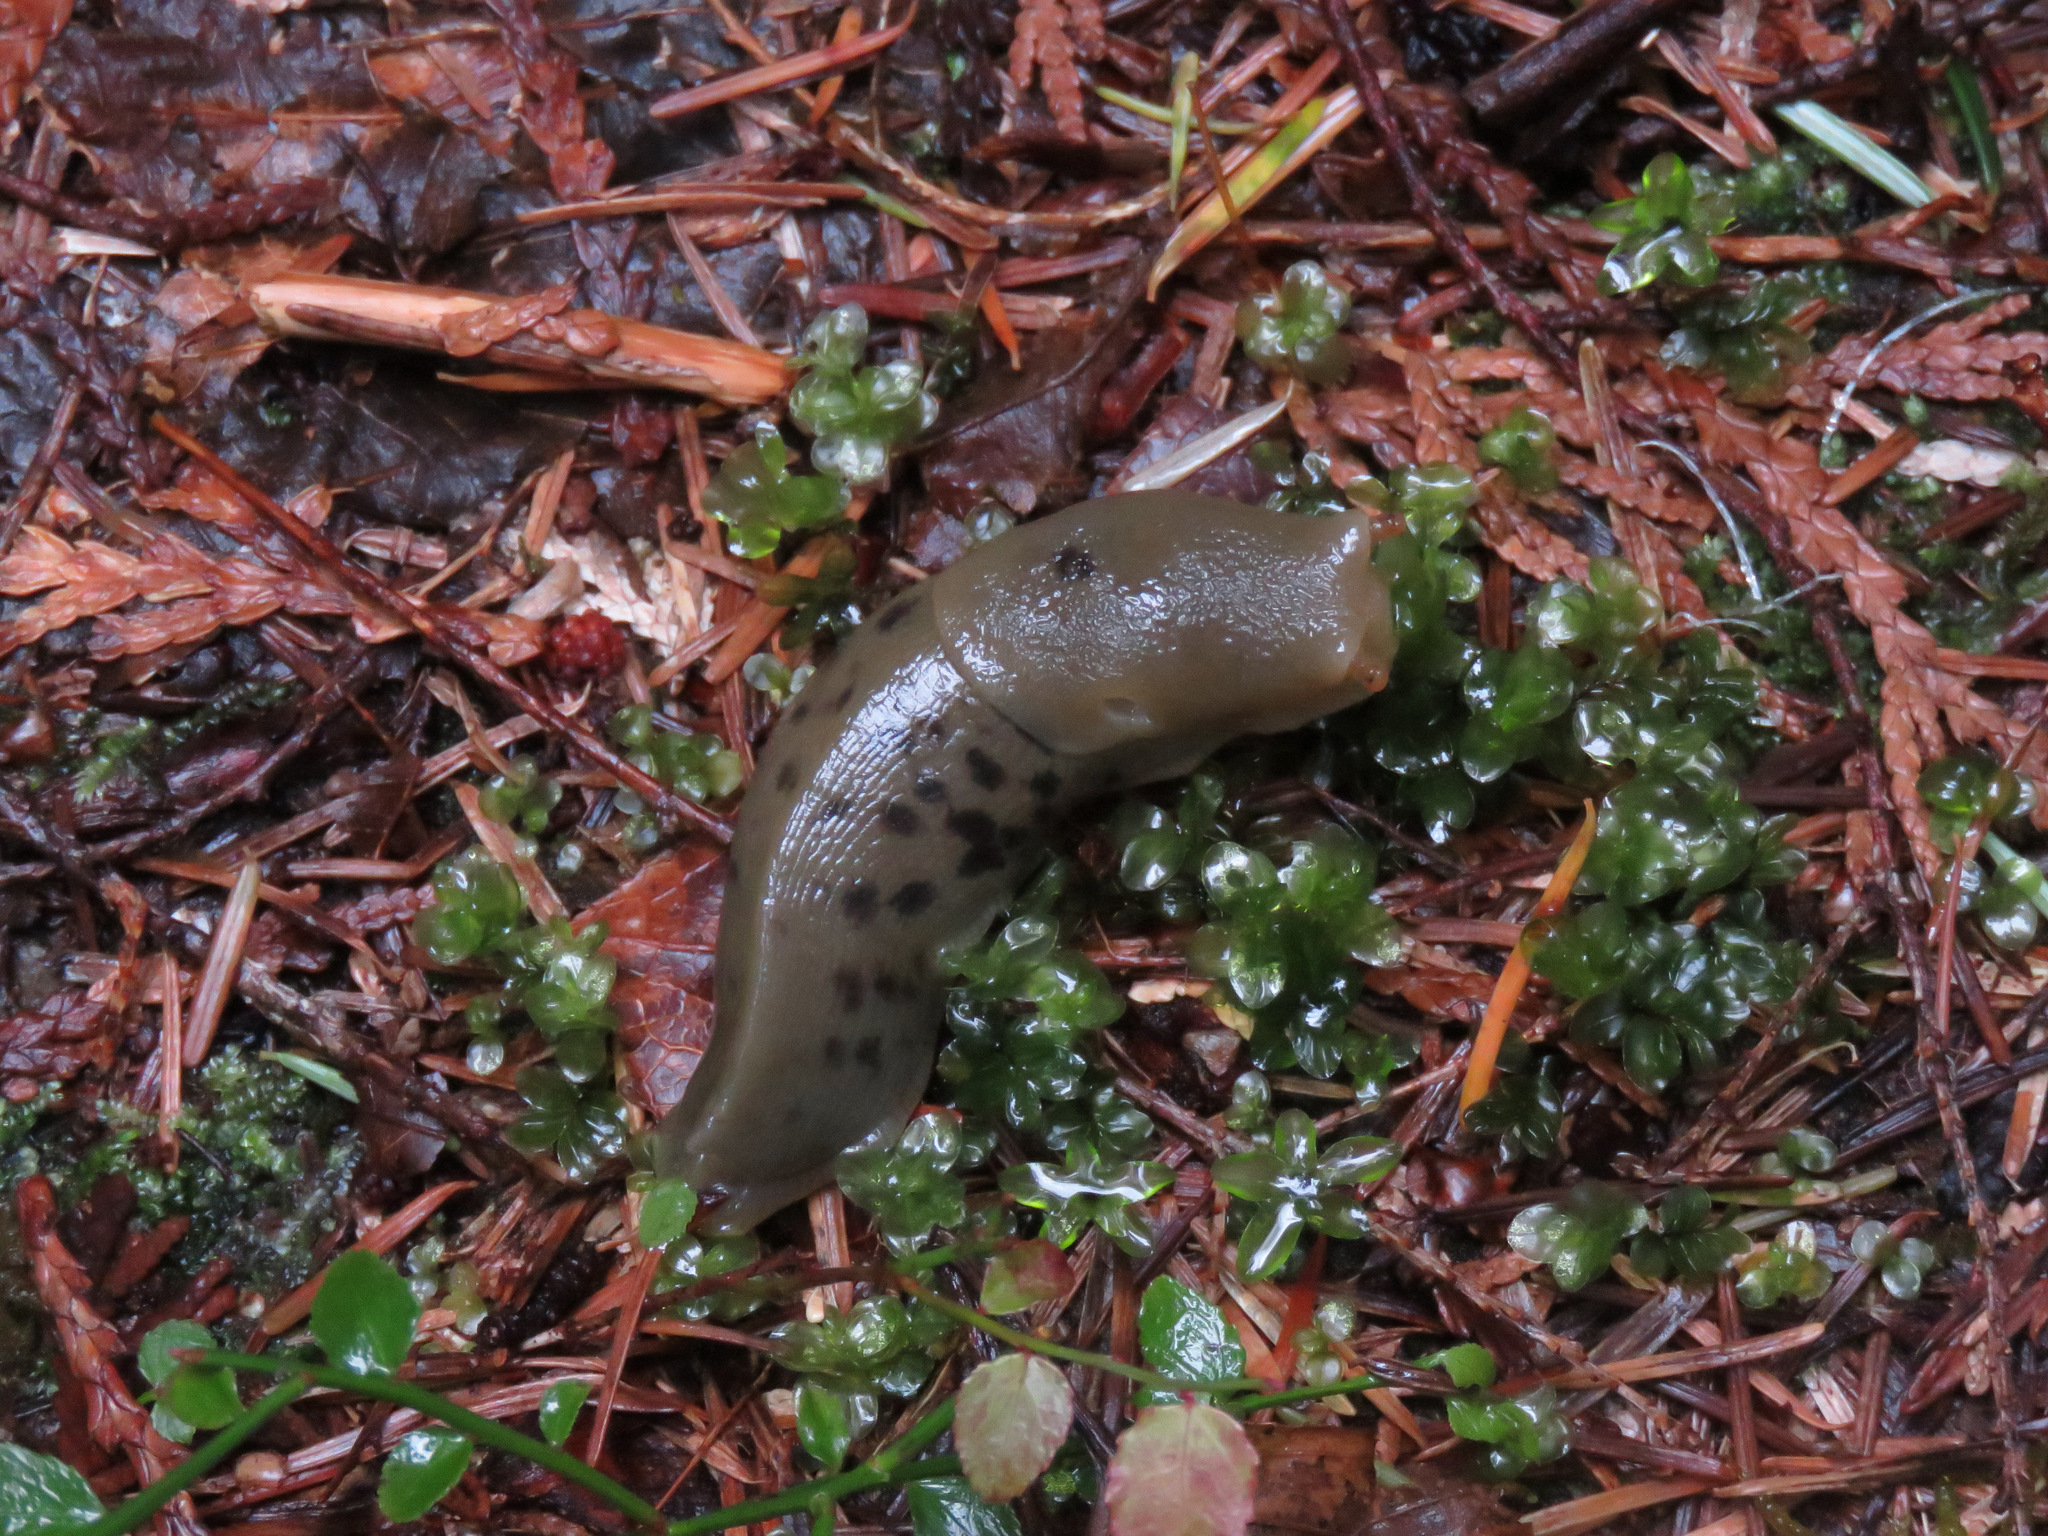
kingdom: Animalia
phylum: Mollusca
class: Gastropoda
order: Stylommatophora
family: Ariolimacidae
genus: Ariolimax
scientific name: Ariolimax columbianus
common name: Pacific banana slug
